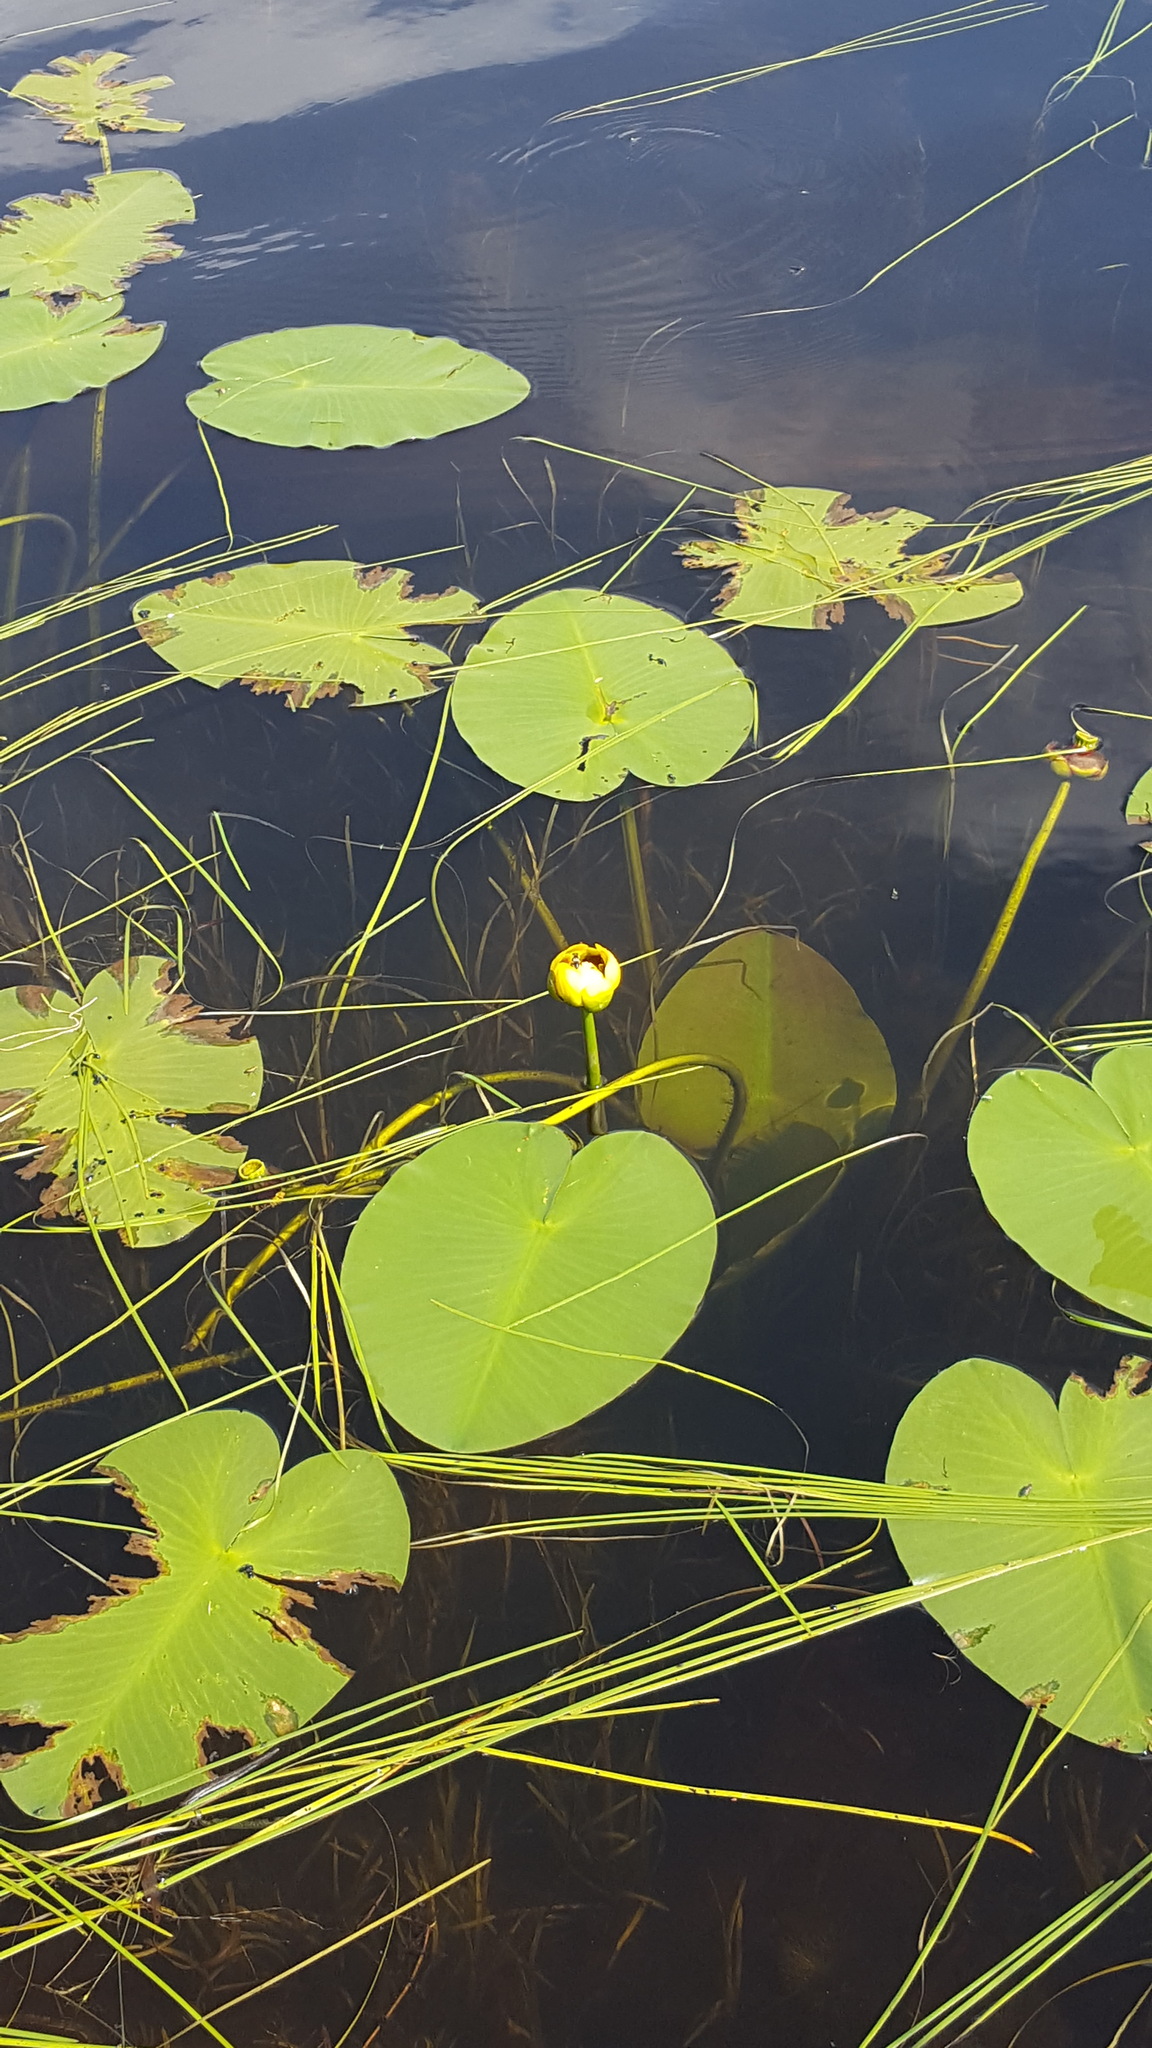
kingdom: Plantae
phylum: Tracheophyta
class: Magnoliopsida
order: Nymphaeales
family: Nymphaeaceae
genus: Nuphar
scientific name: Nuphar variegata
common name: Beaver-root
